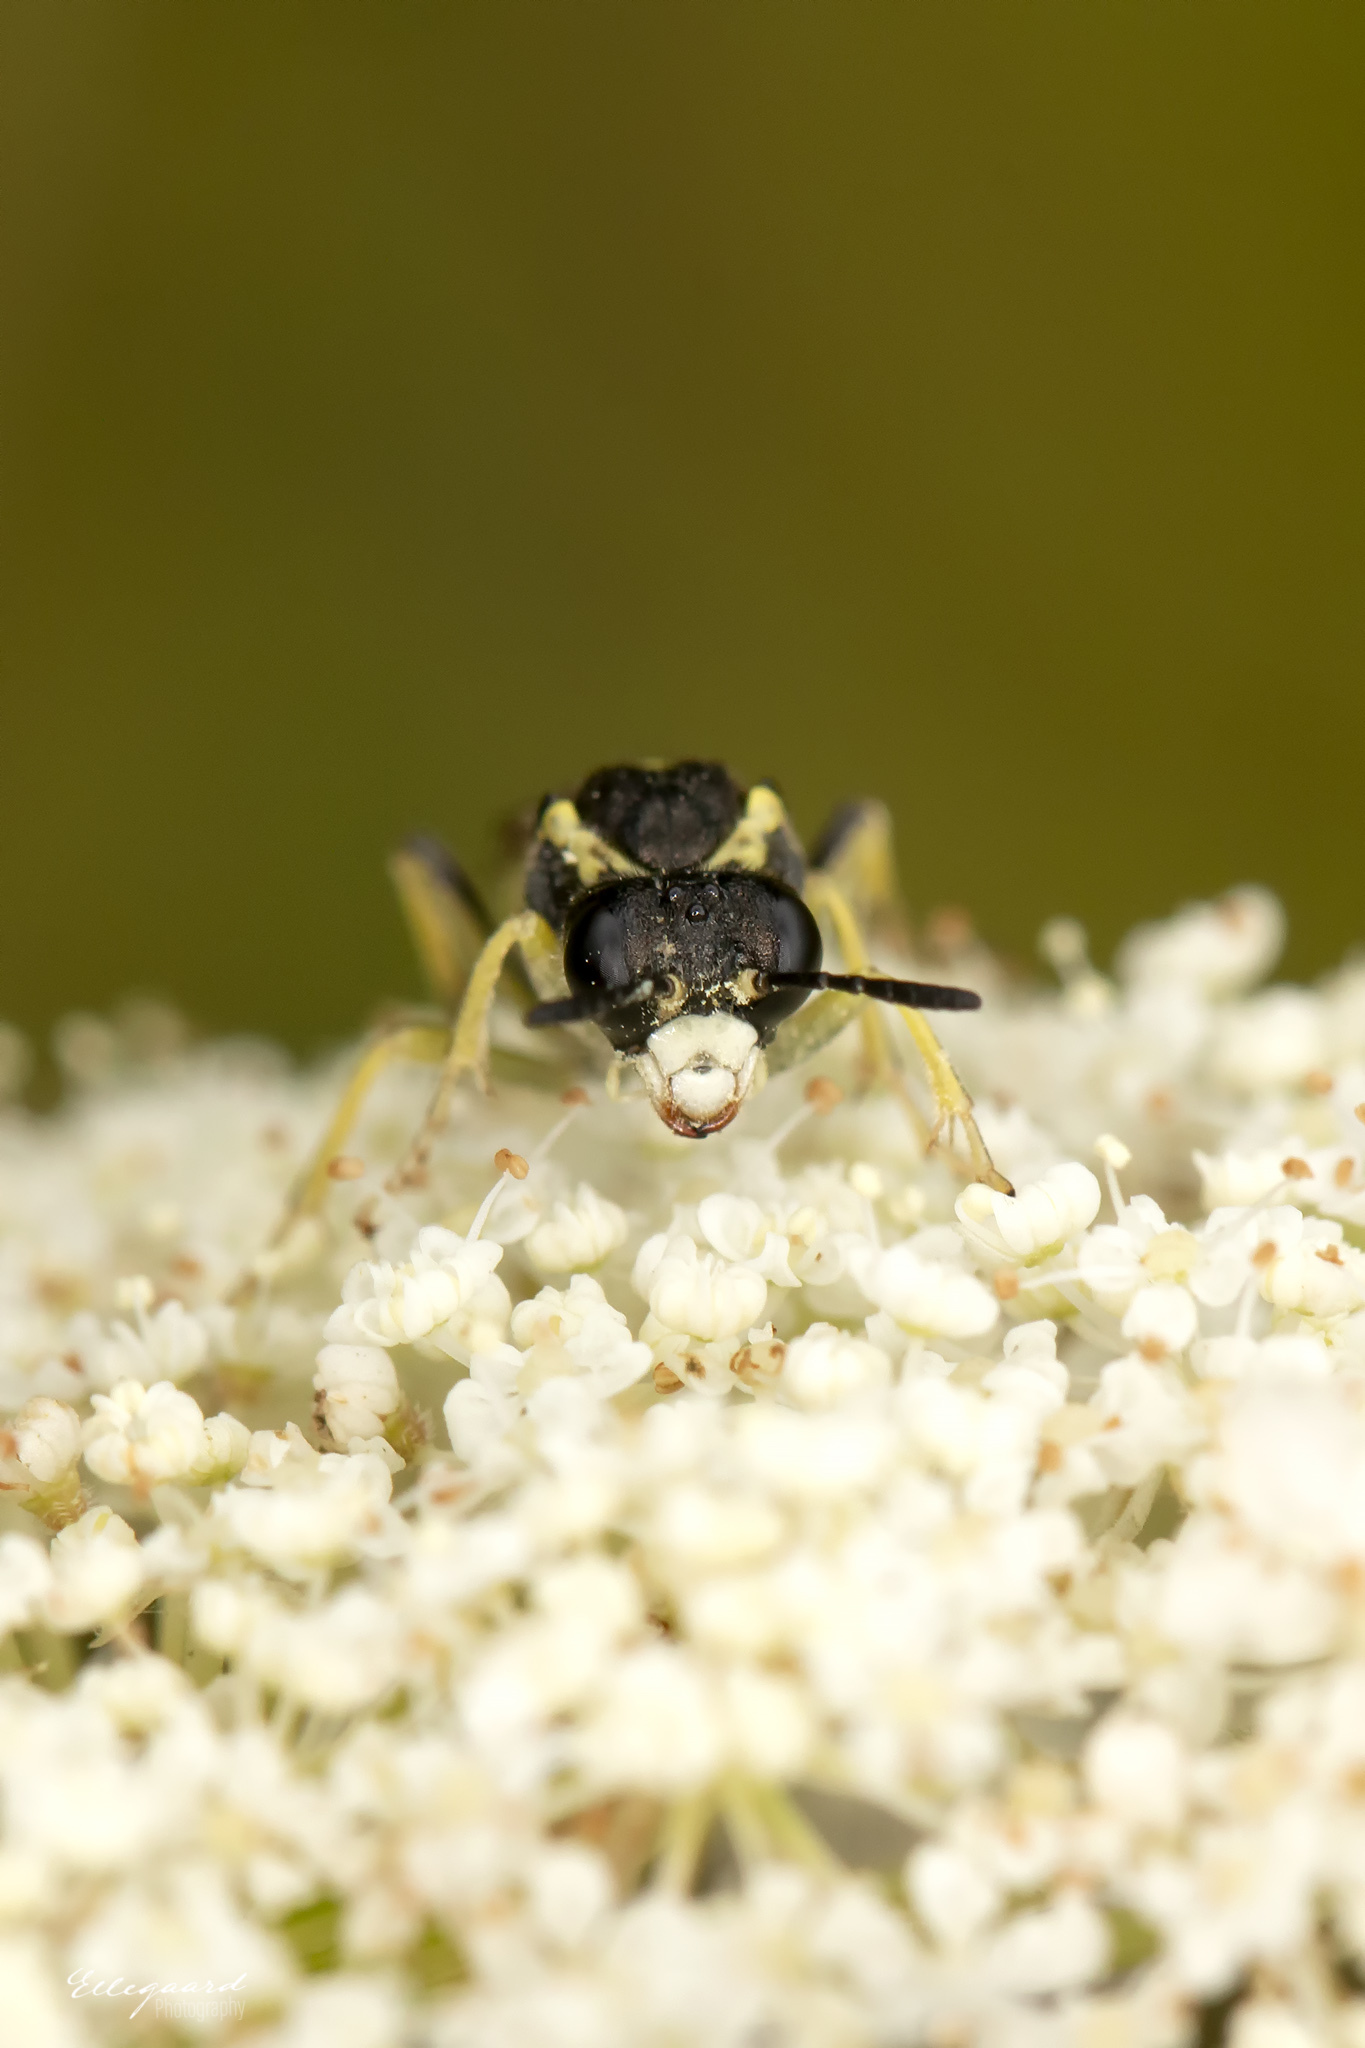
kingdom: Animalia
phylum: Arthropoda
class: Insecta
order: Hymenoptera
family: Tenthredinidae
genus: Tenthredo
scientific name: Tenthredo notha
